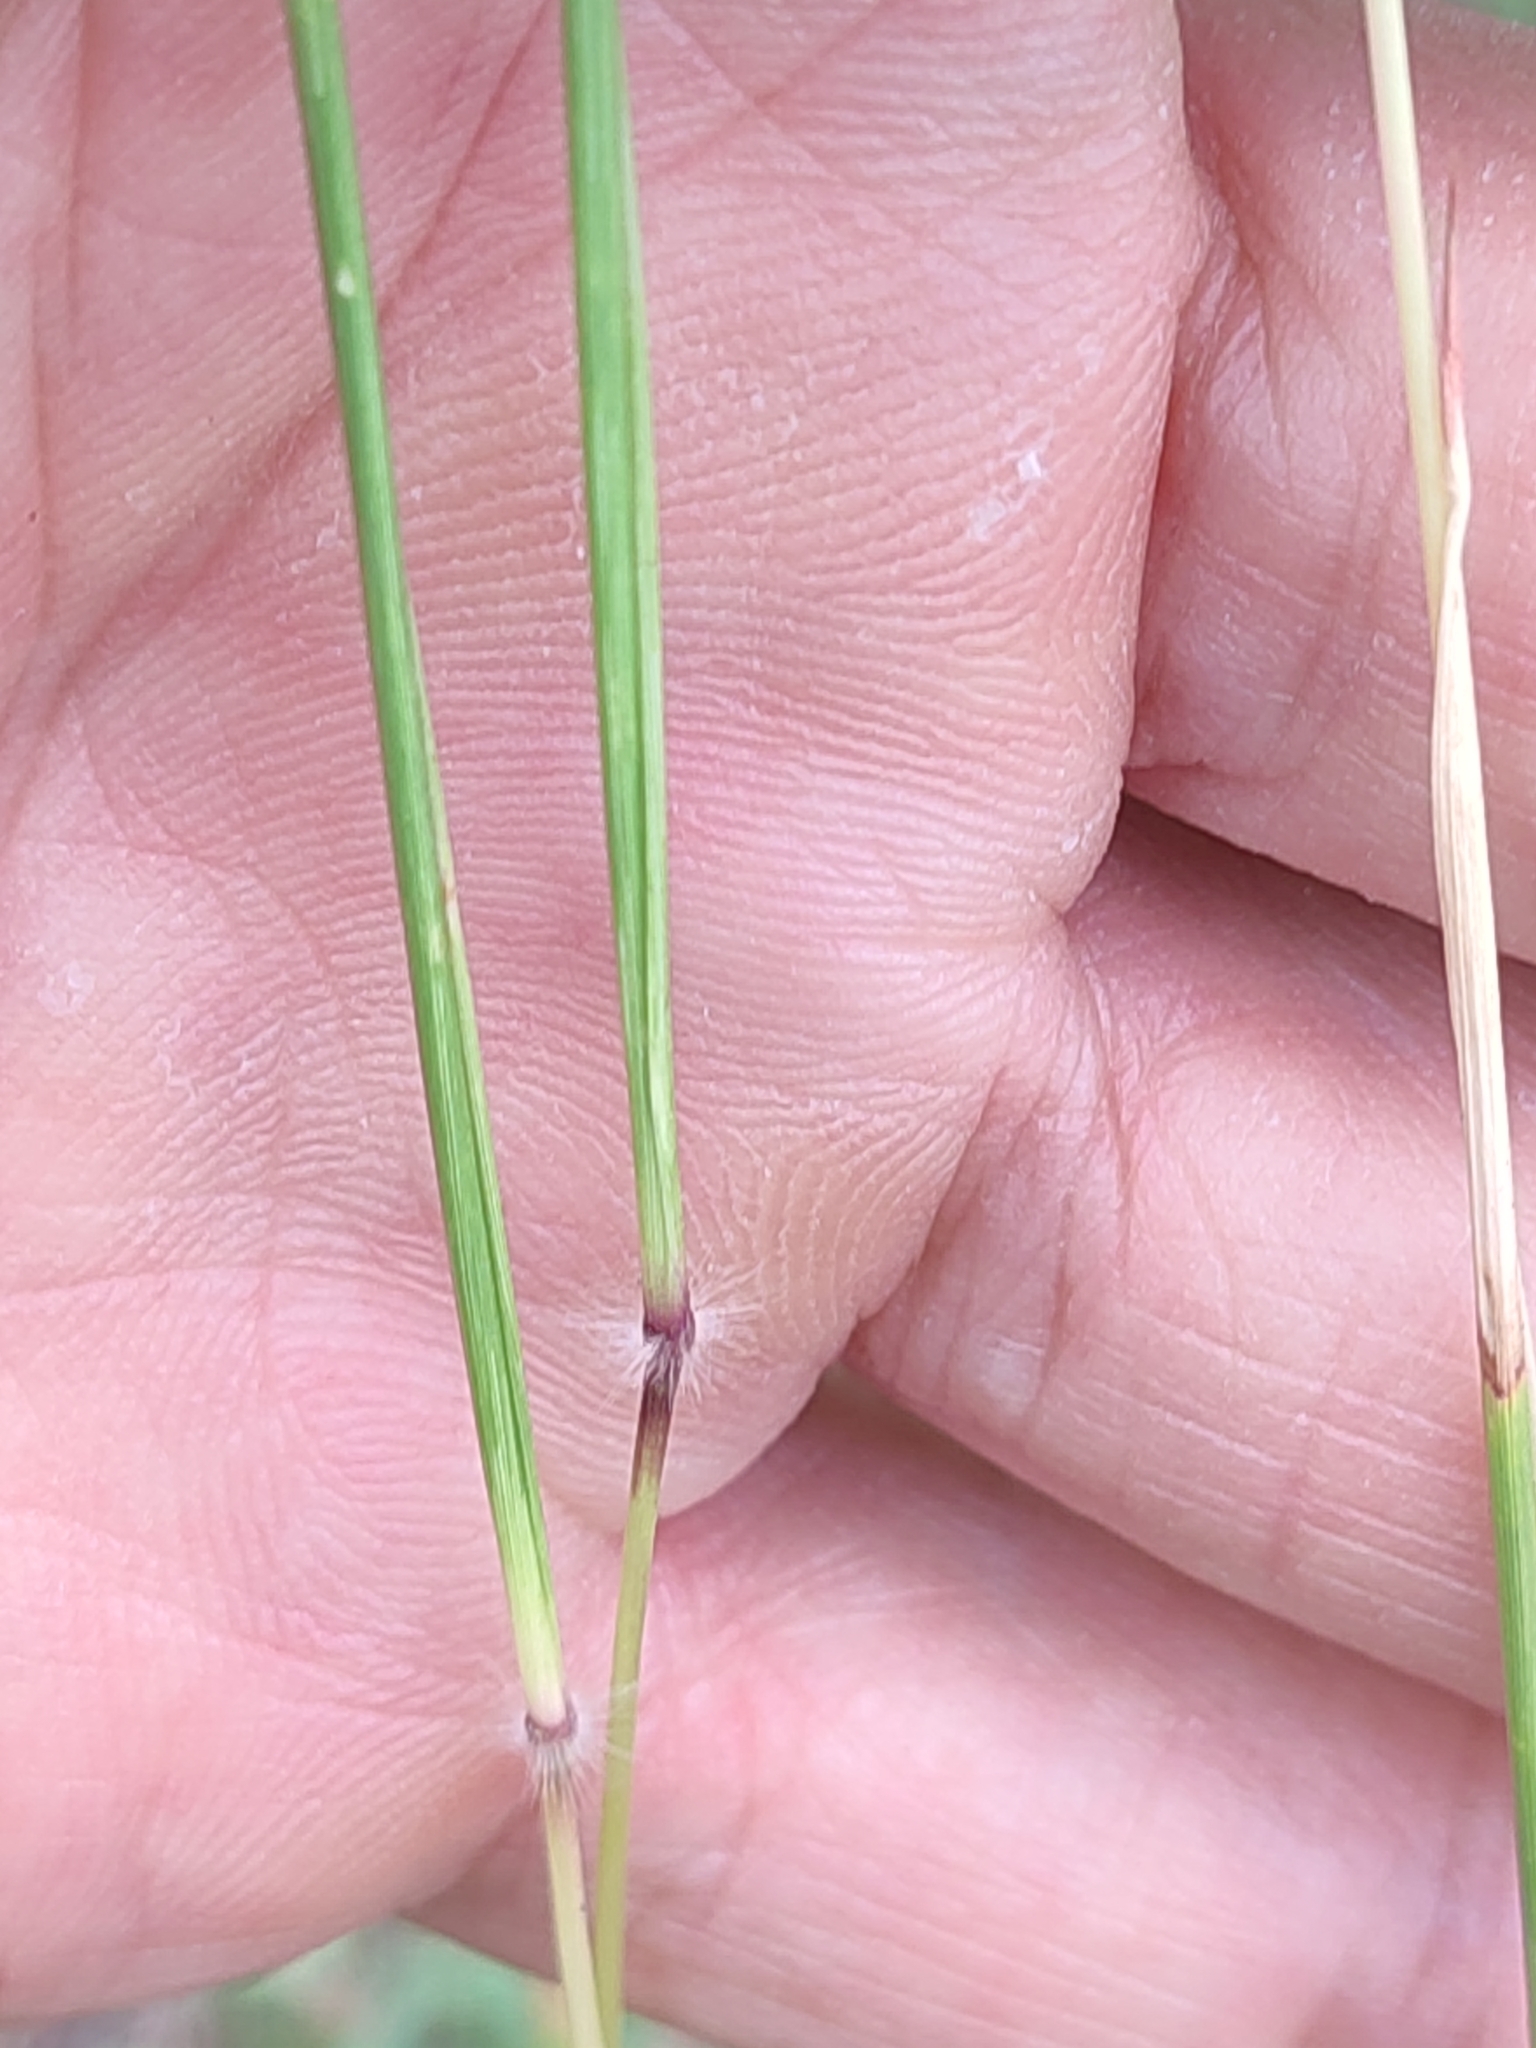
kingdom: Plantae
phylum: Tracheophyta
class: Liliopsida
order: Poales
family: Poaceae
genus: Dichanthium
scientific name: Dichanthium annulatum
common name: Kleberg's bluestem
